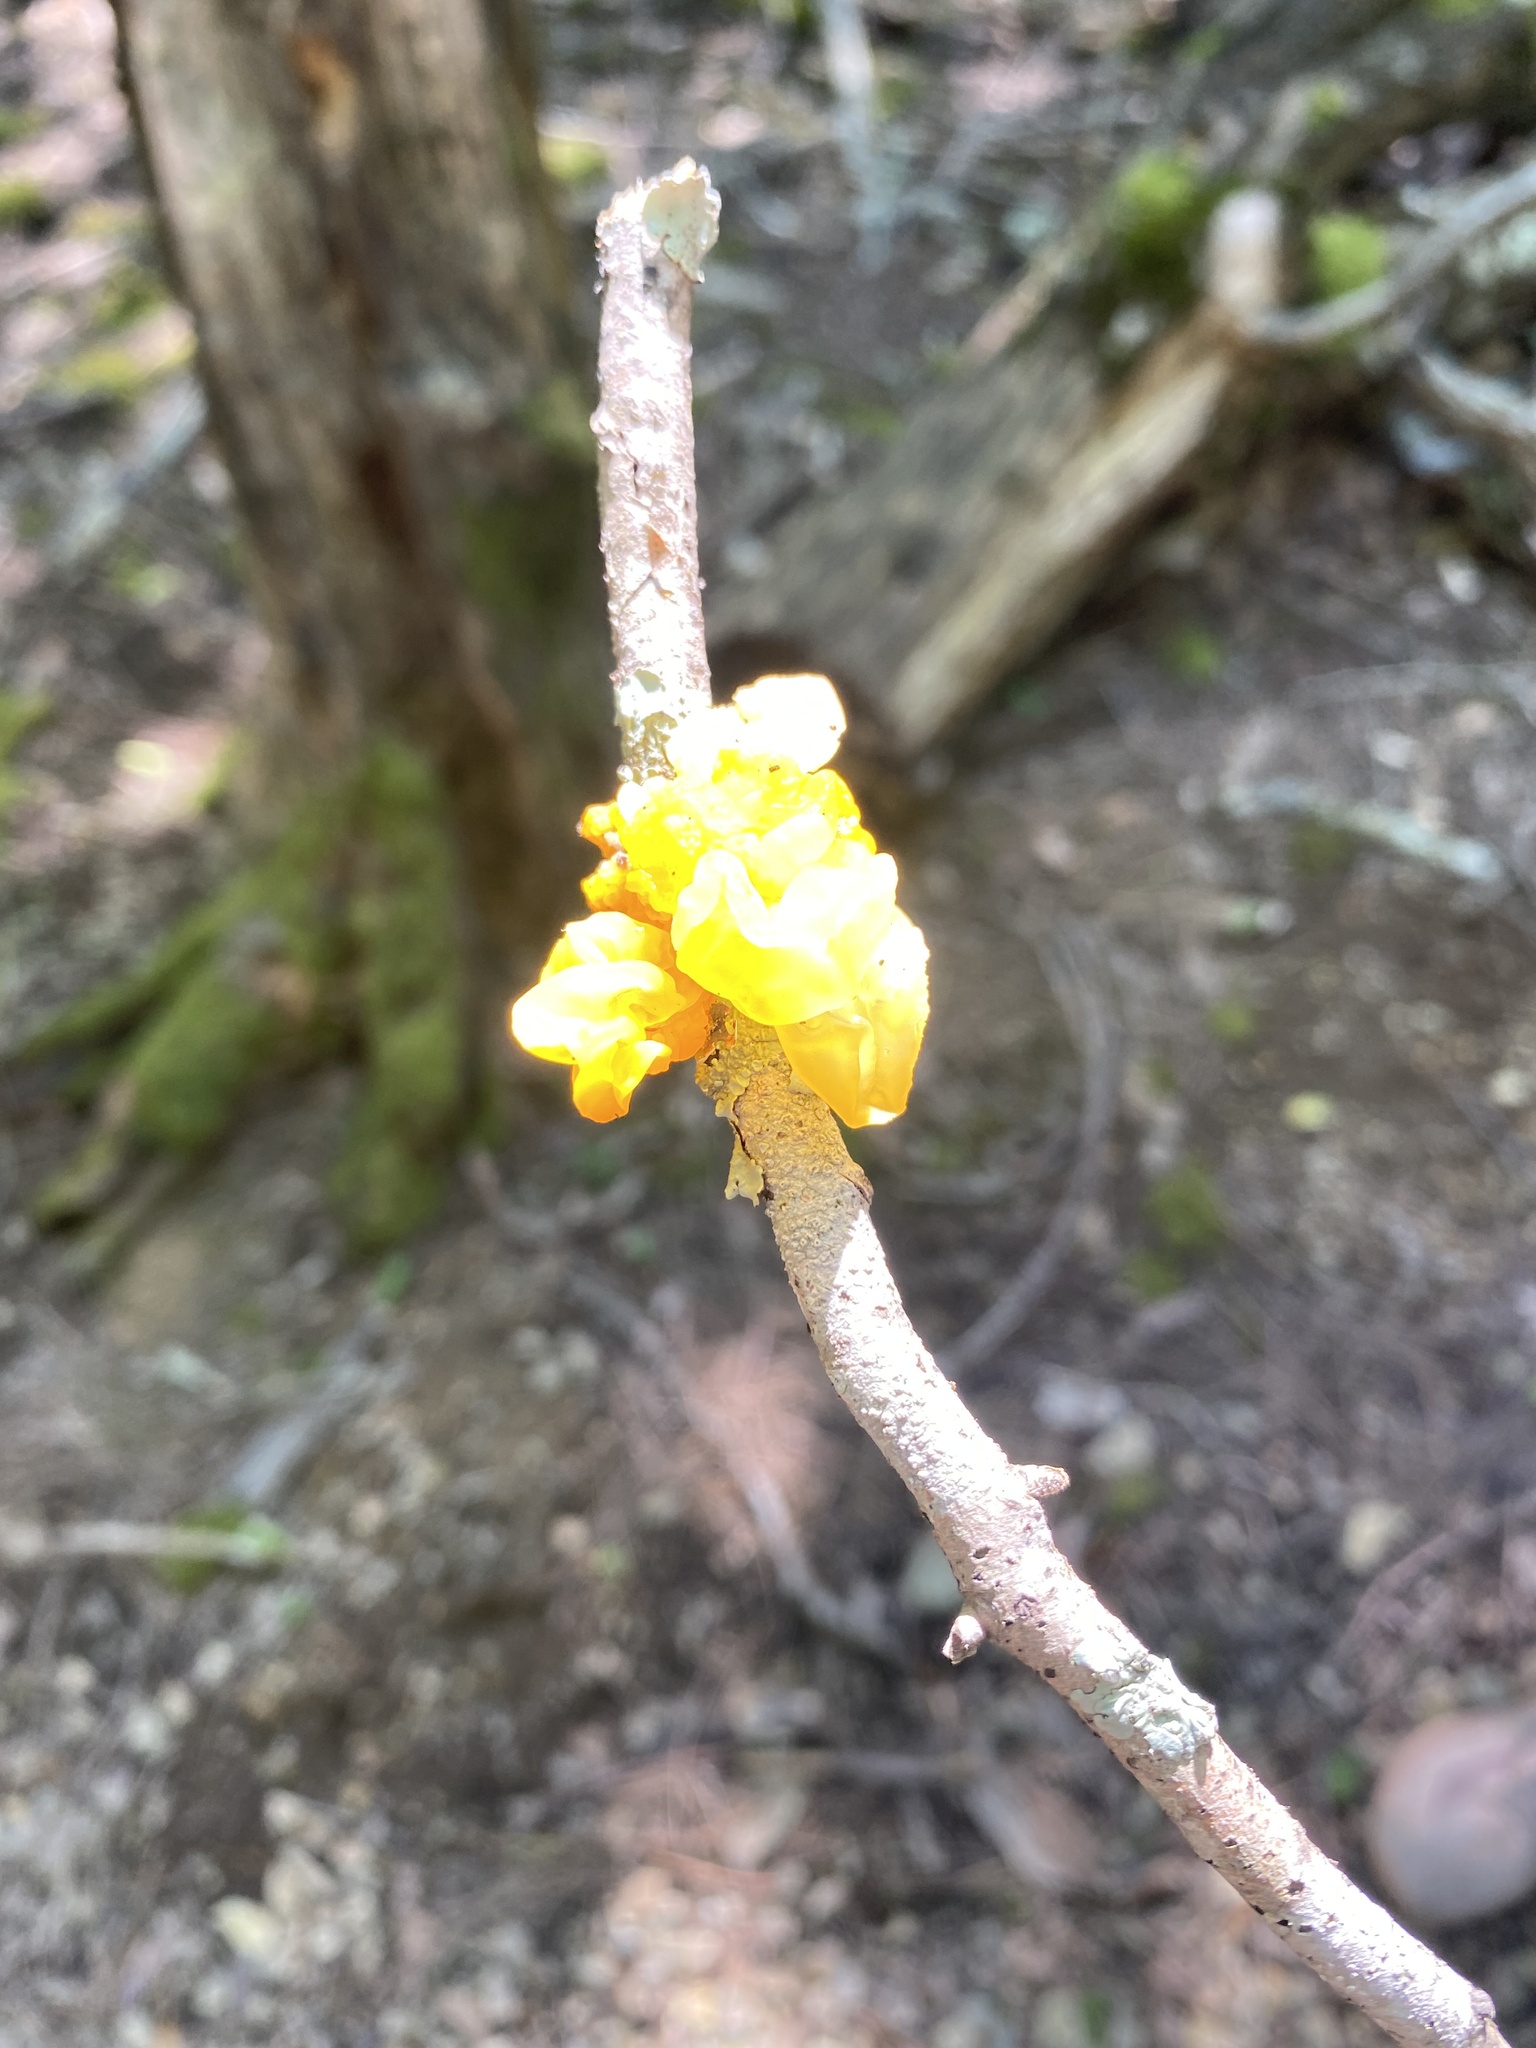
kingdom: Fungi
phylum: Basidiomycota
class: Tremellomycetes
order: Tremellales
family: Tremellaceae
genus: Tremella
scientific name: Tremella mesenterica
